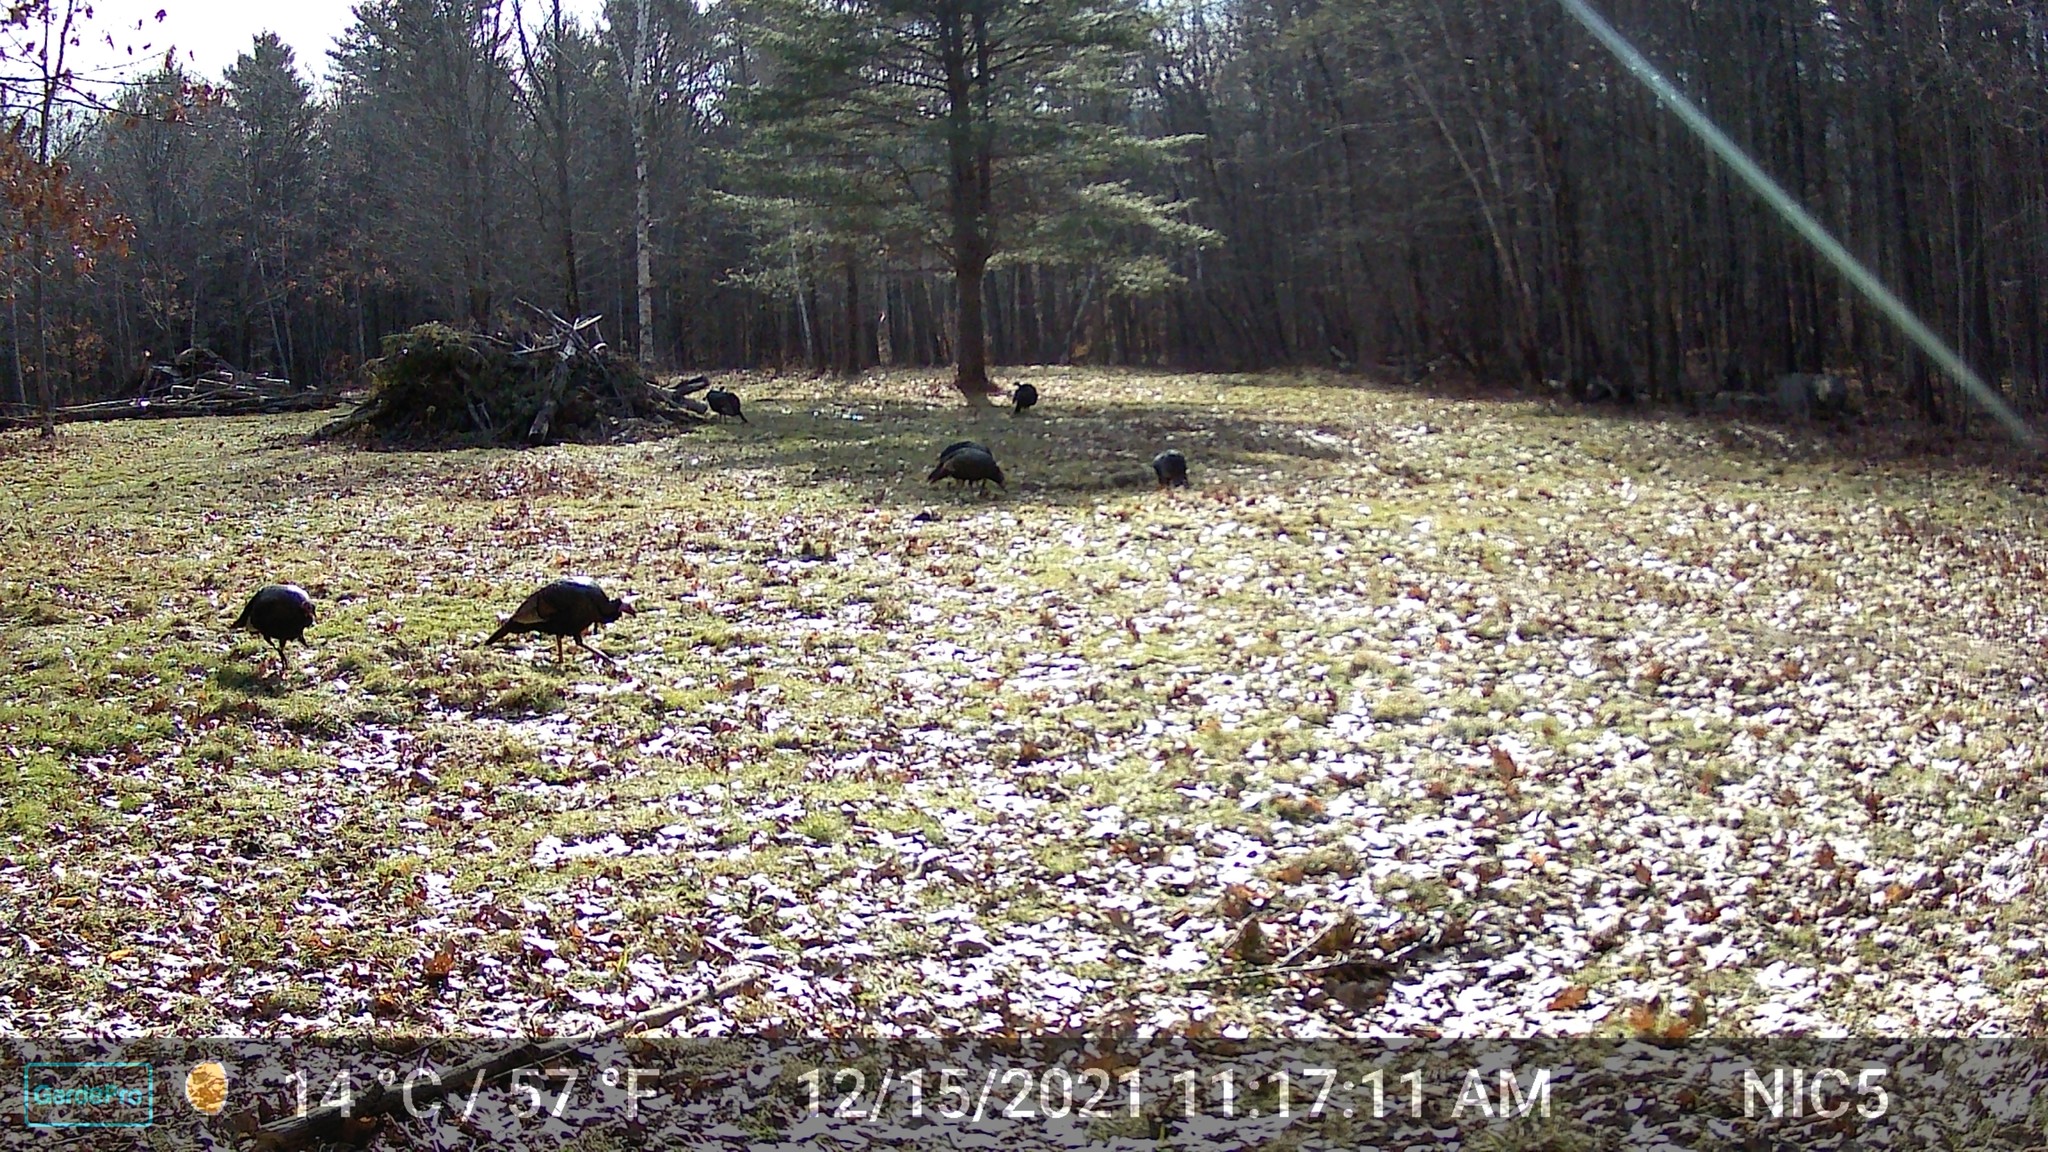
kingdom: Animalia
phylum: Chordata
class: Aves
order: Galliformes
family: Phasianidae
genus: Meleagris
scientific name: Meleagris gallopavo
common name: Wild turkey
